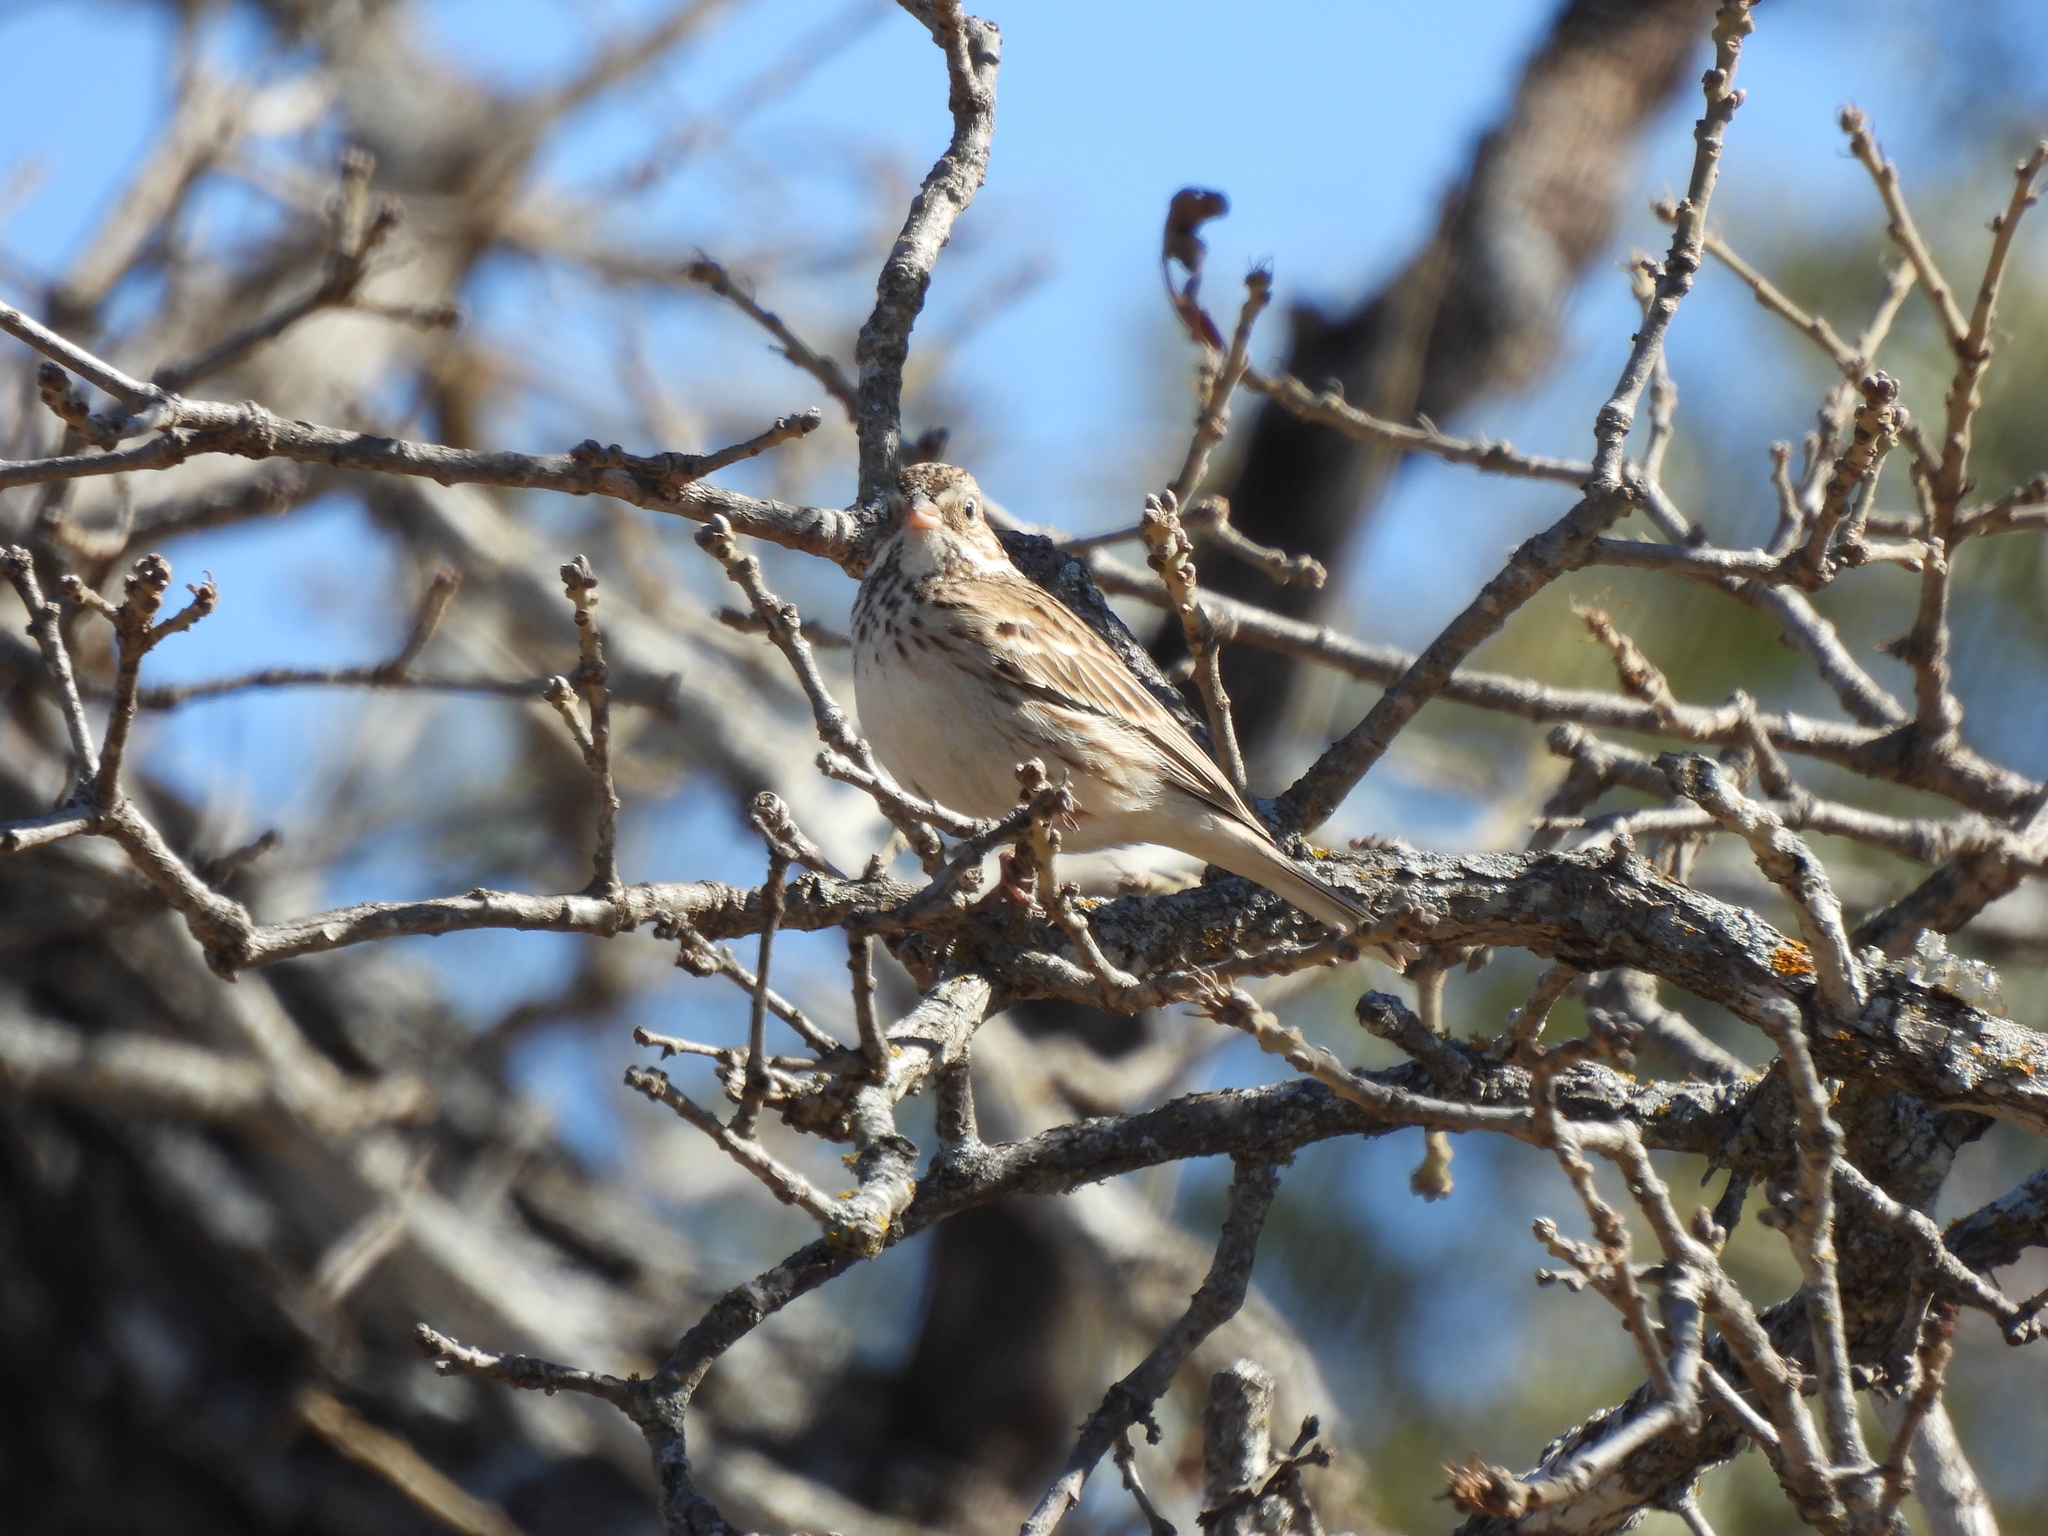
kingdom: Animalia
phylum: Chordata
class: Aves
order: Passeriformes
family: Passerellidae
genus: Pooecetes
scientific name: Pooecetes gramineus
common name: Vesper sparrow
